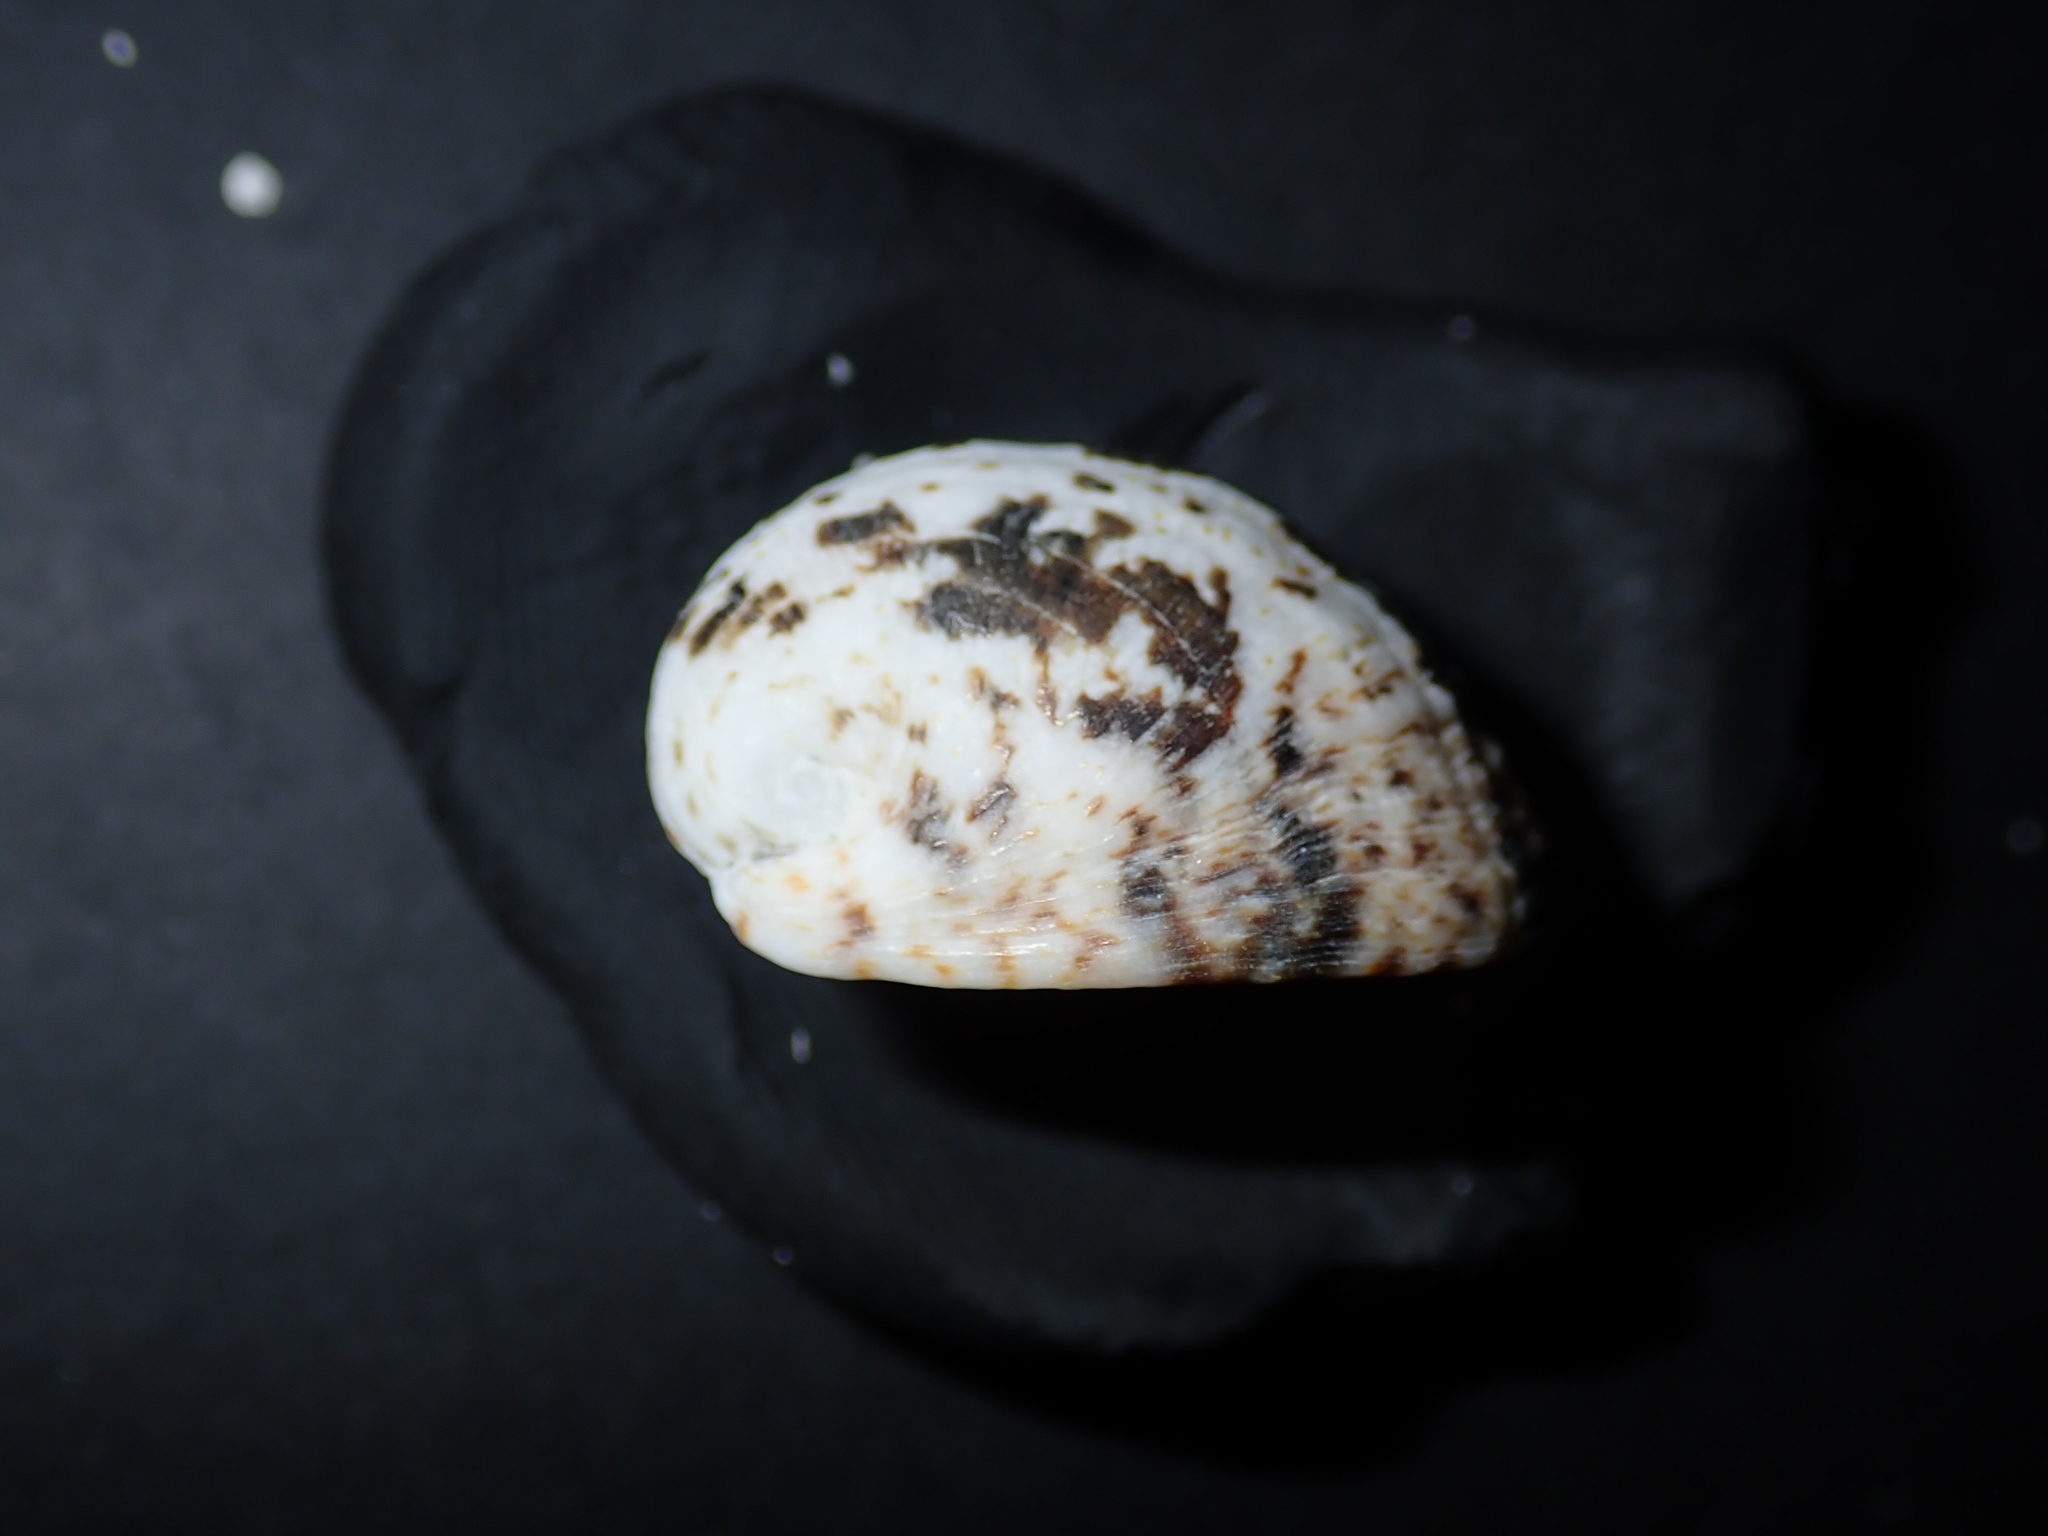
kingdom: Animalia
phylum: Mollusca
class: Gastropoda
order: Cycloneritida
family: Neritidae
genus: Nerita
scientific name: Nerita albicilla
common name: Blotched nerite
